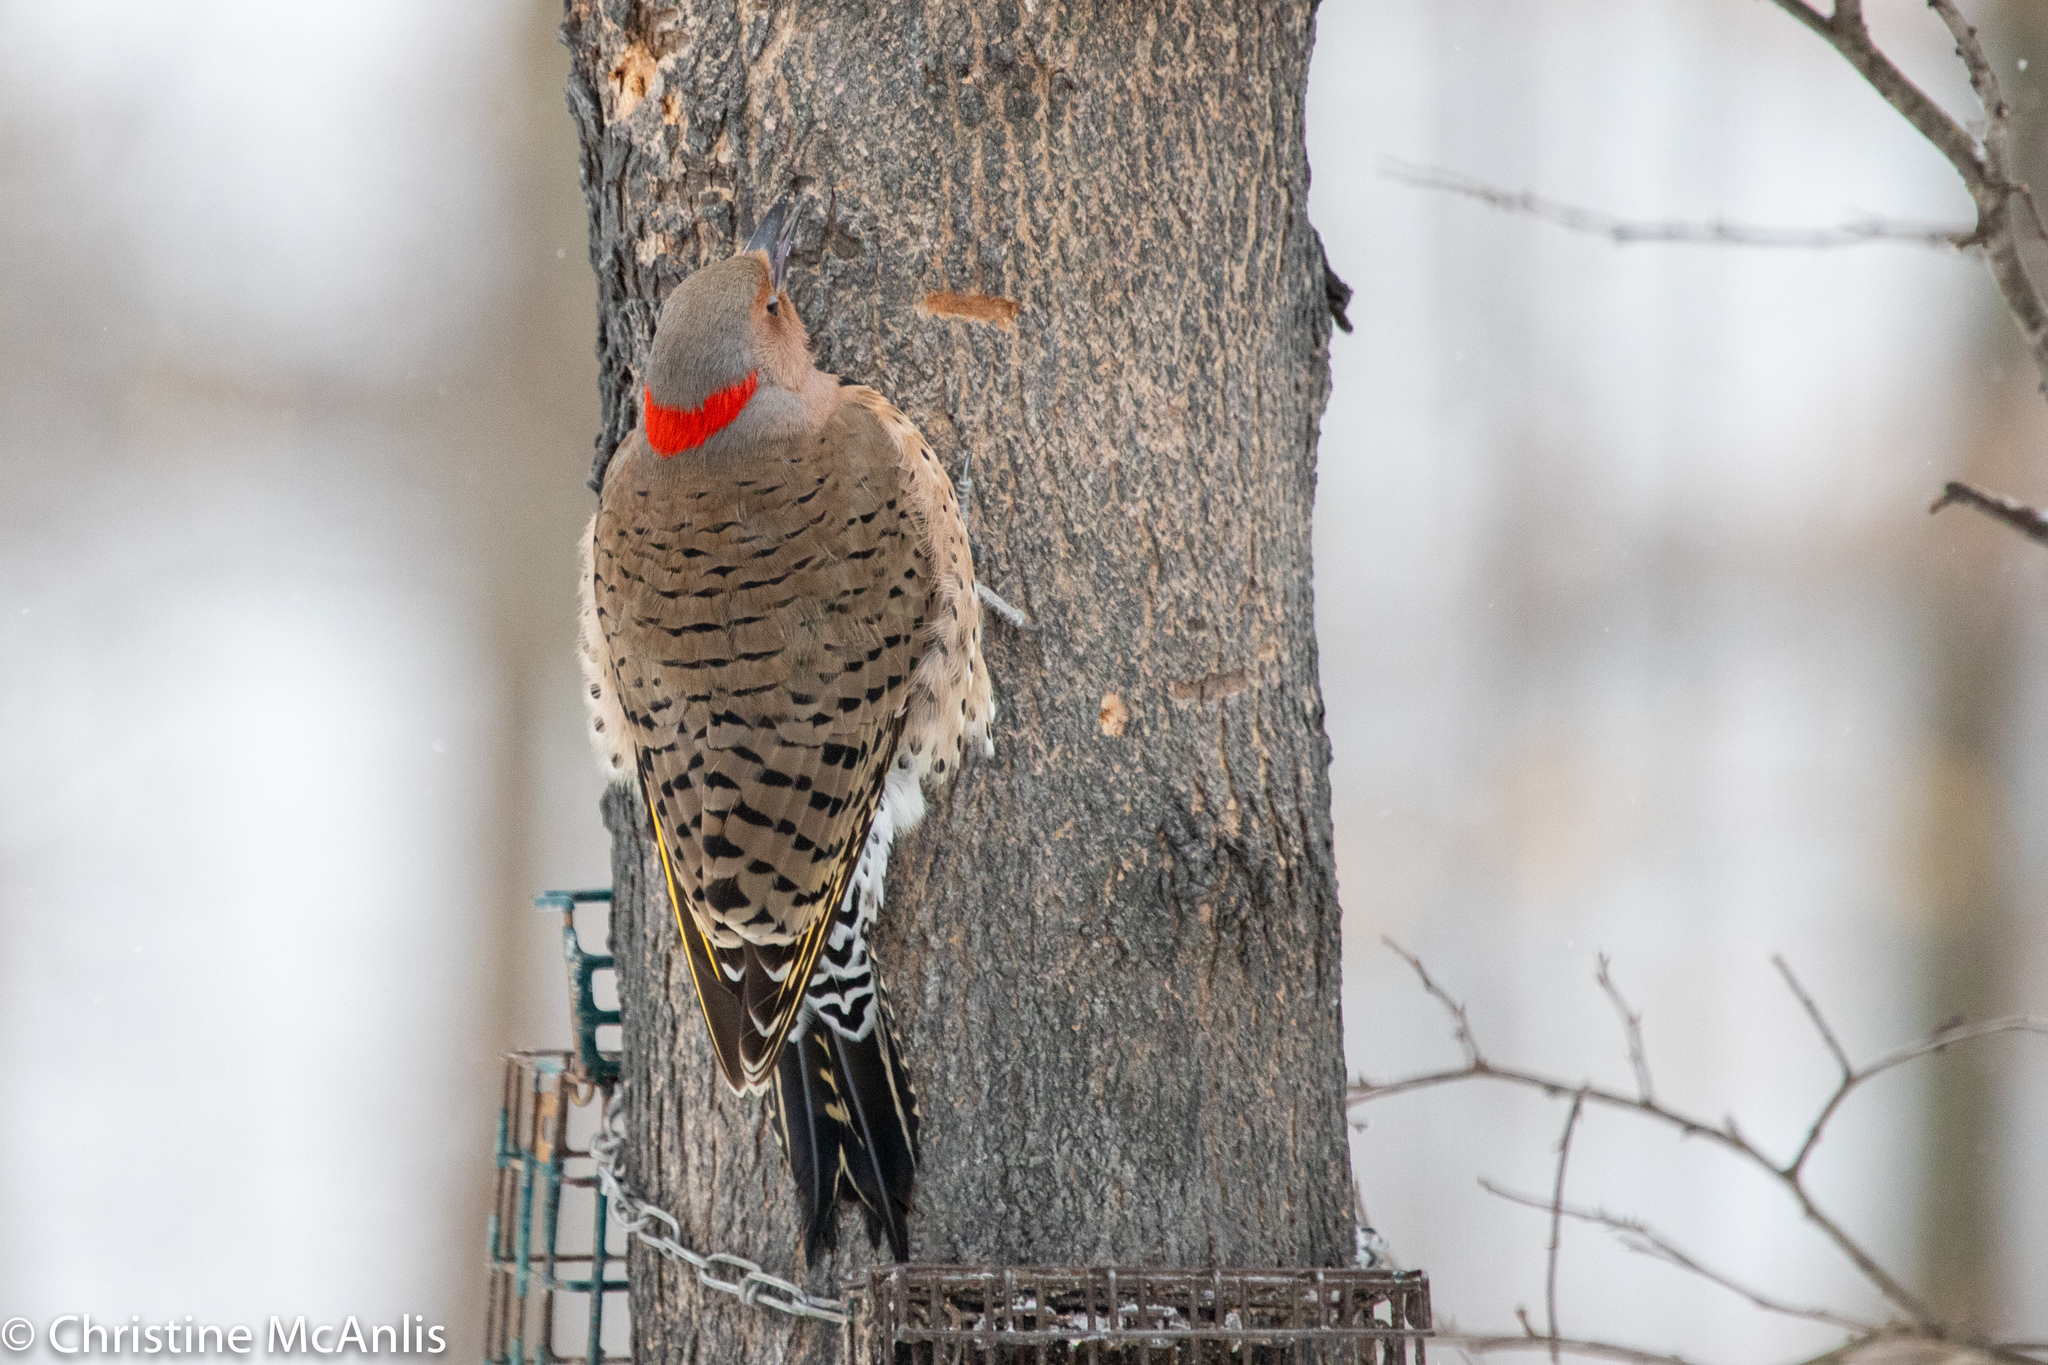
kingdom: Animalia
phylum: Chordata
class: Aves
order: Piciformes
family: Picidae
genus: Colaptes
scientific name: Colaptes auratus
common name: Northern flicker
